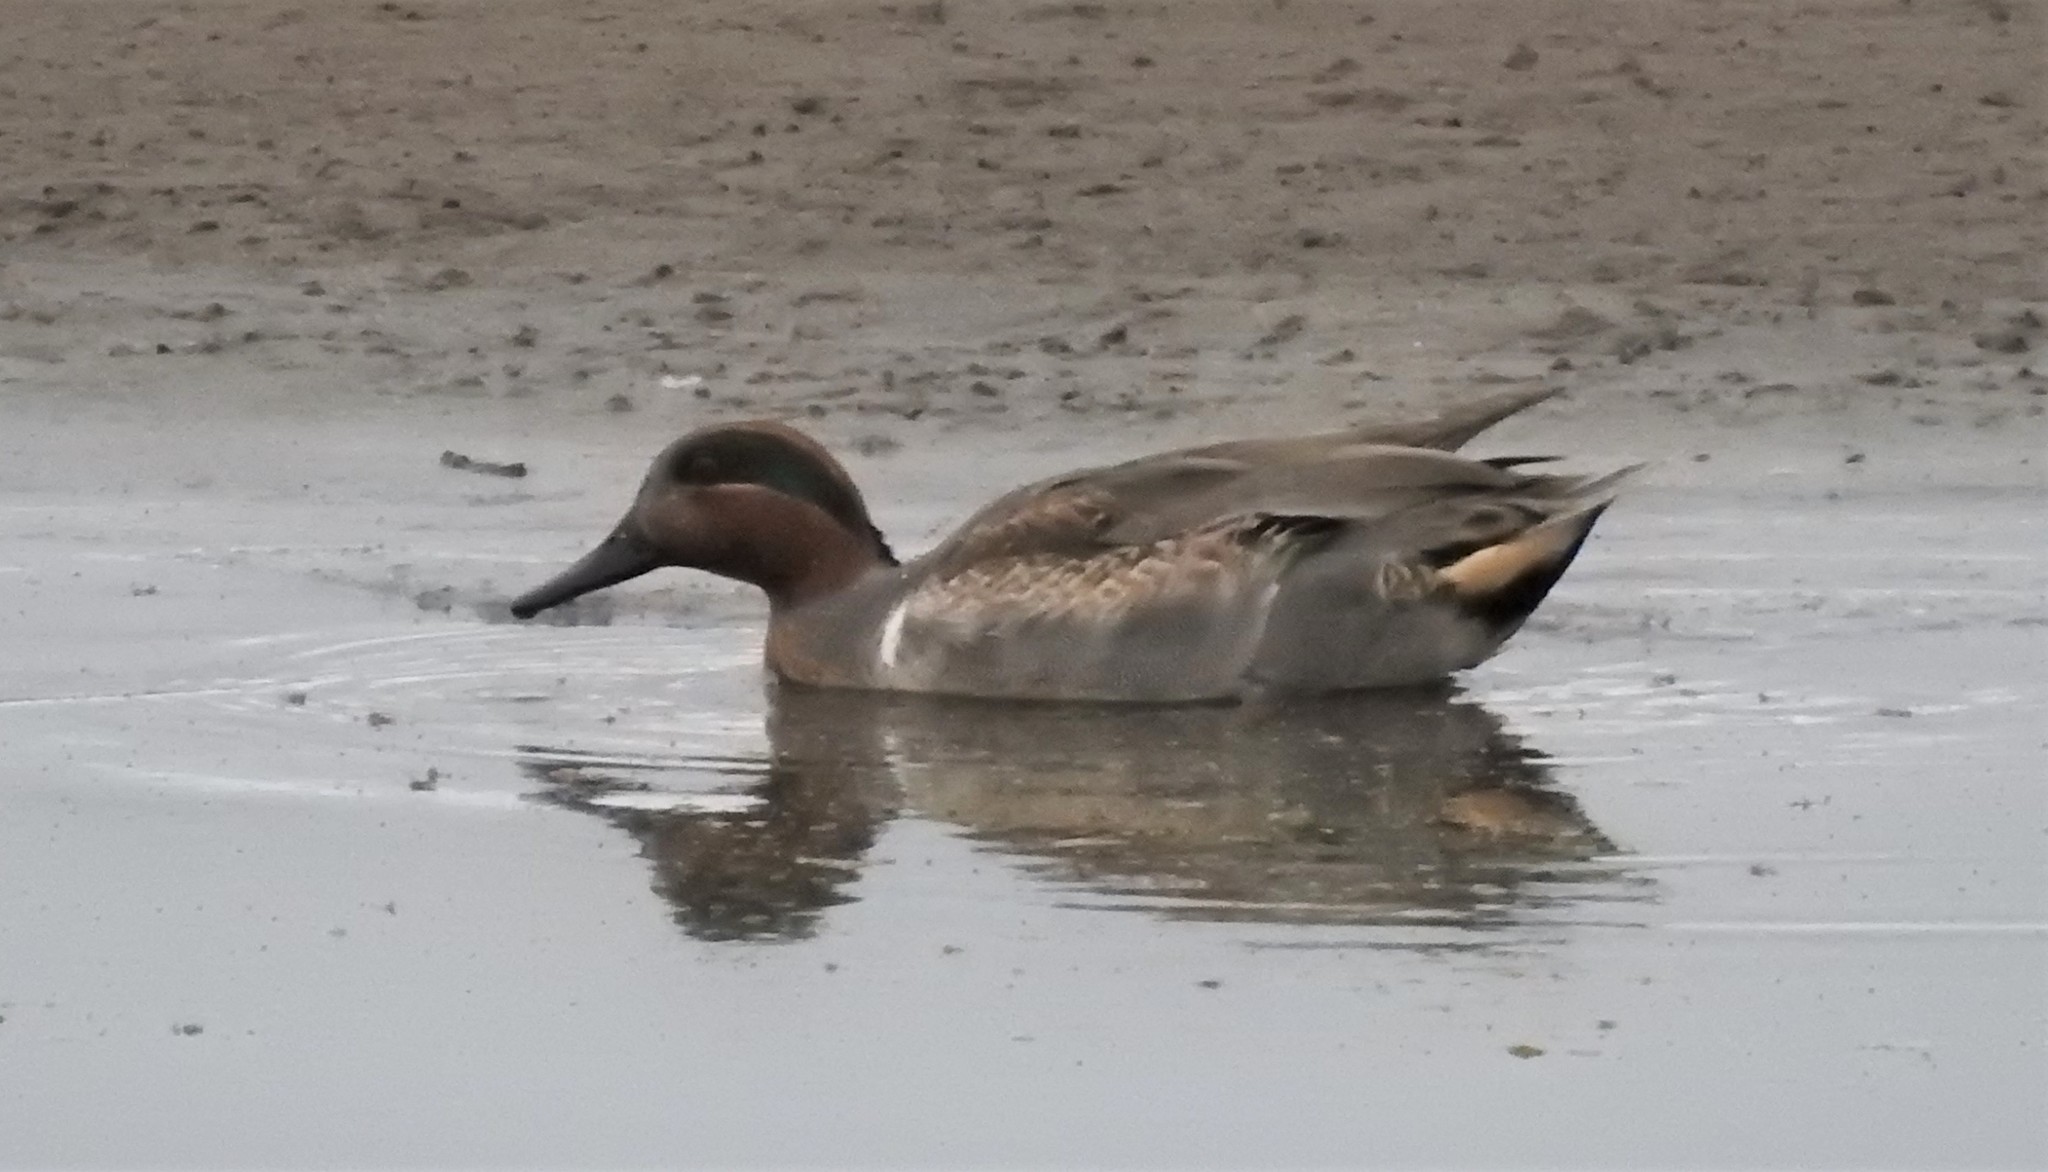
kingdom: Animalia
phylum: Chordata
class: Aves
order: Anseriformes
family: Anatidae
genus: Anas
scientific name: Anas crecca
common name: Eurasian teal
